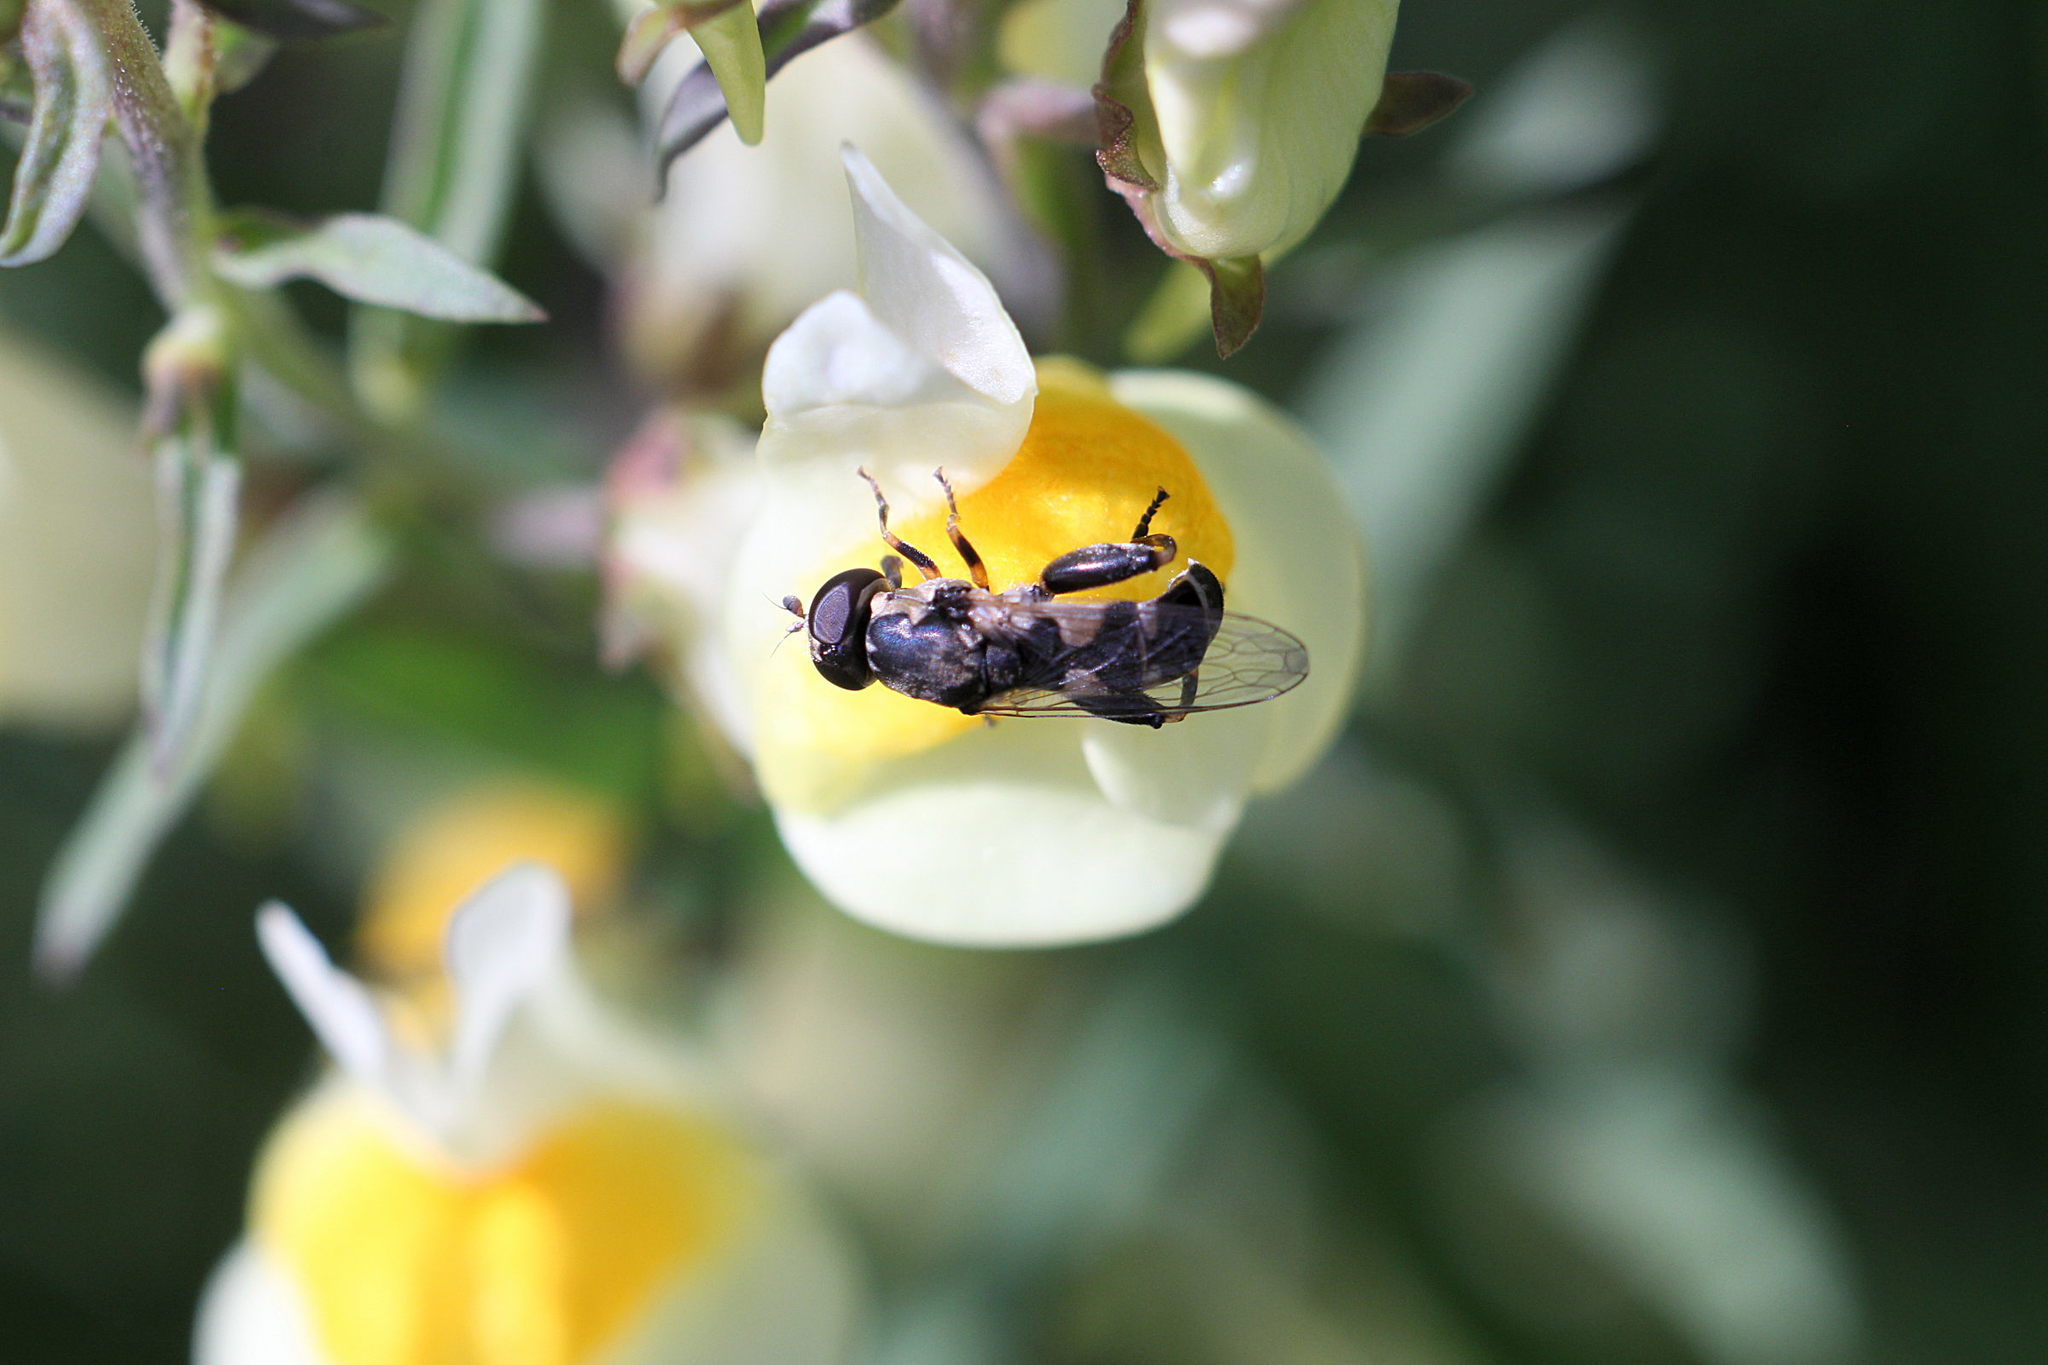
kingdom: Animalia
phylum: Arthropoda
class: Insecta
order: Diptera
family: Syrphidae
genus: Syritta
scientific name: Syritta pipiens
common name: Hover fly
